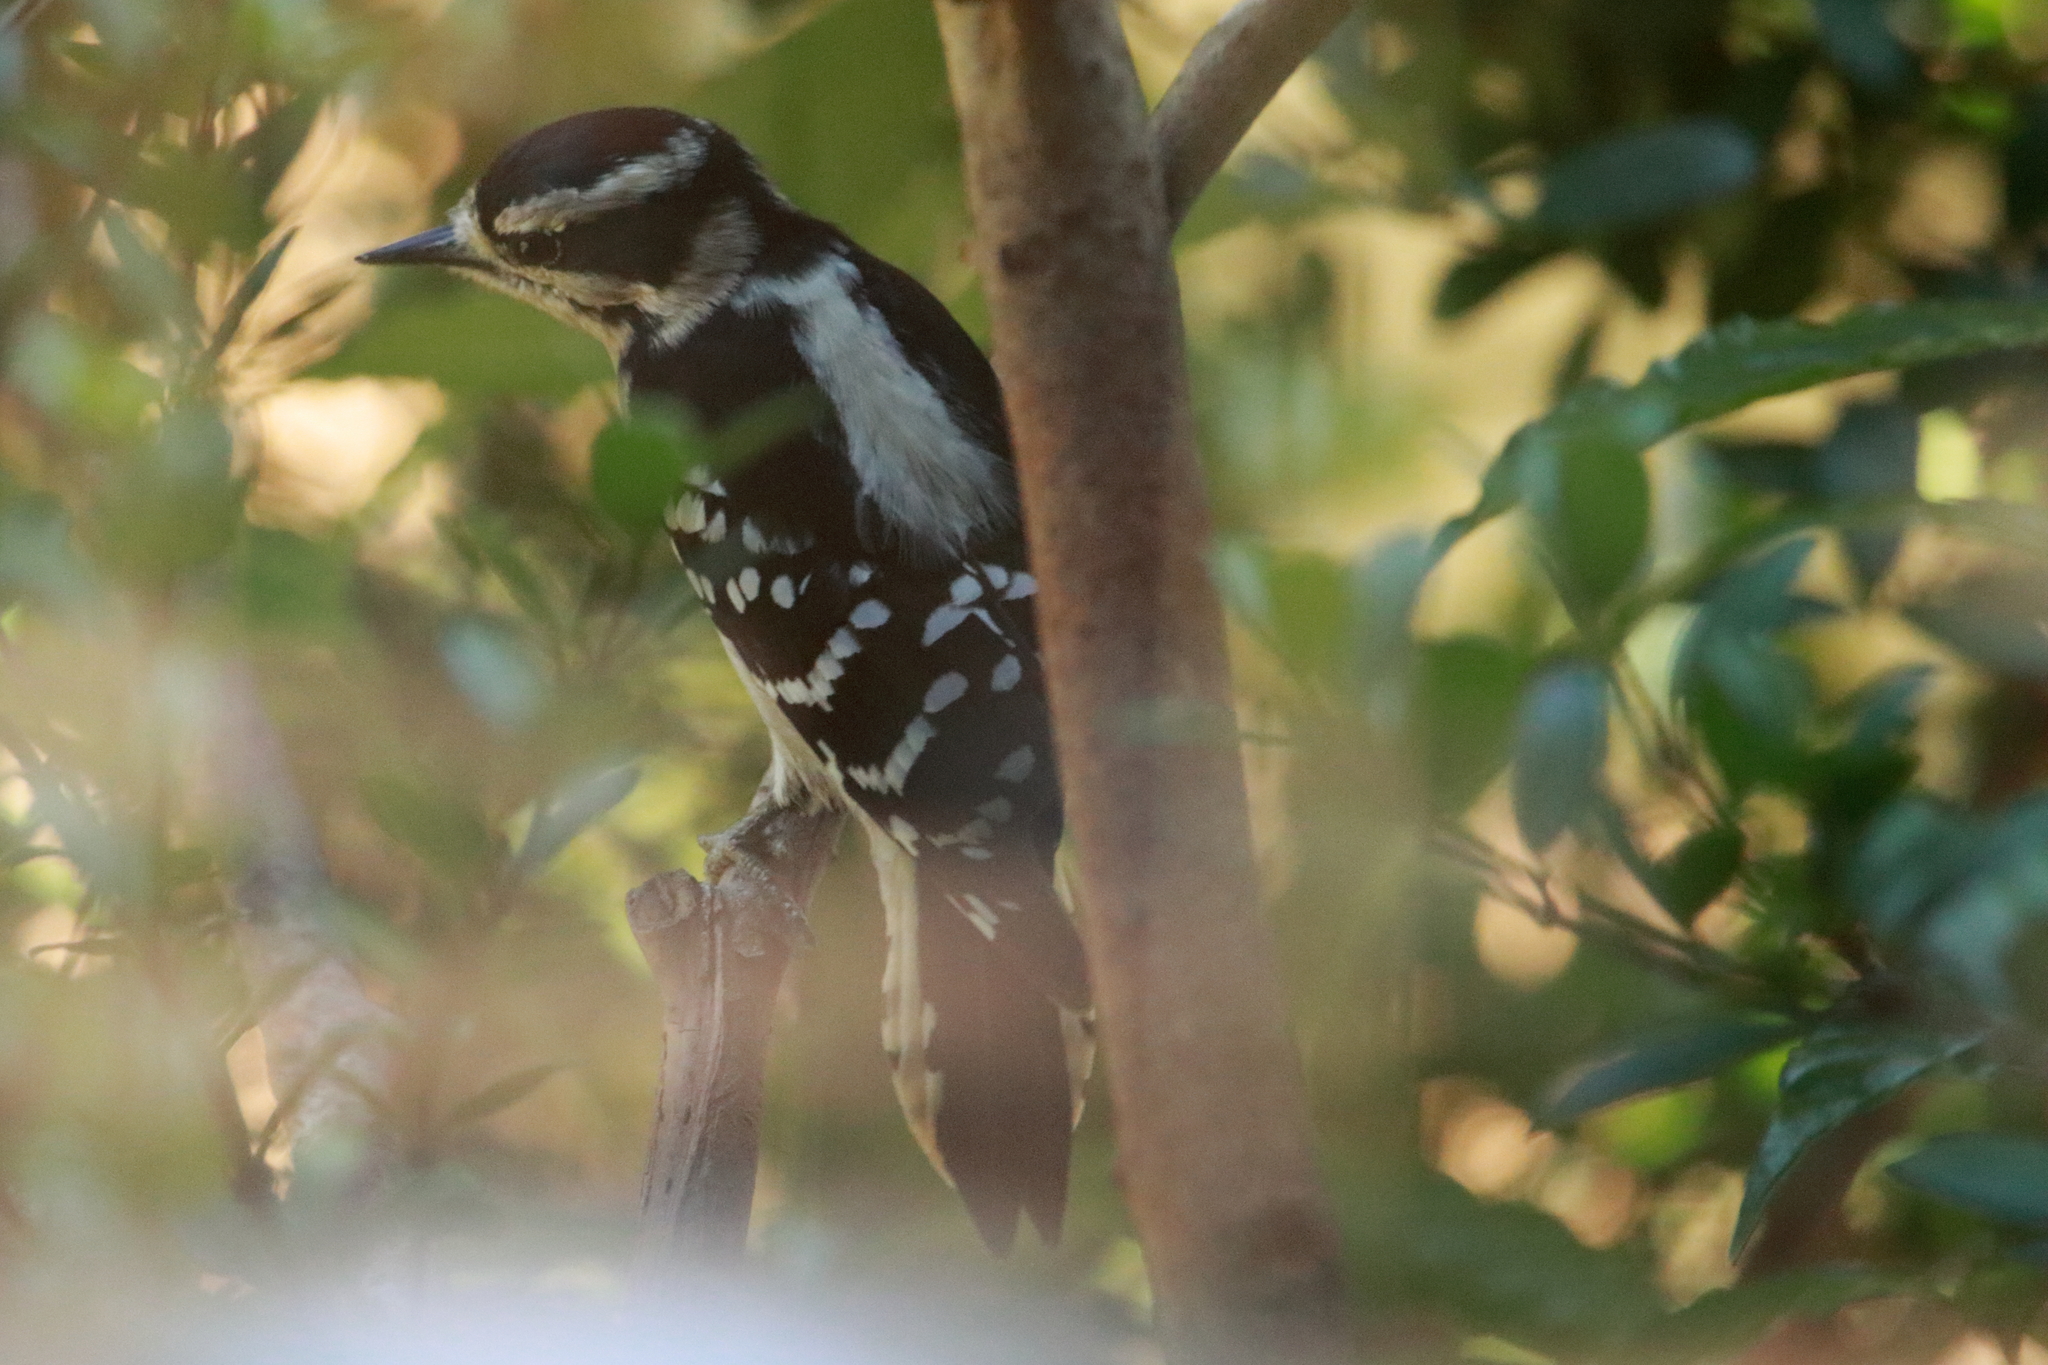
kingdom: Animalia
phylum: Chordata
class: Aves
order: Piciformes
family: Picidae
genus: Dryobates
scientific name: Dryobates pubescens
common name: Downy woodpecker
